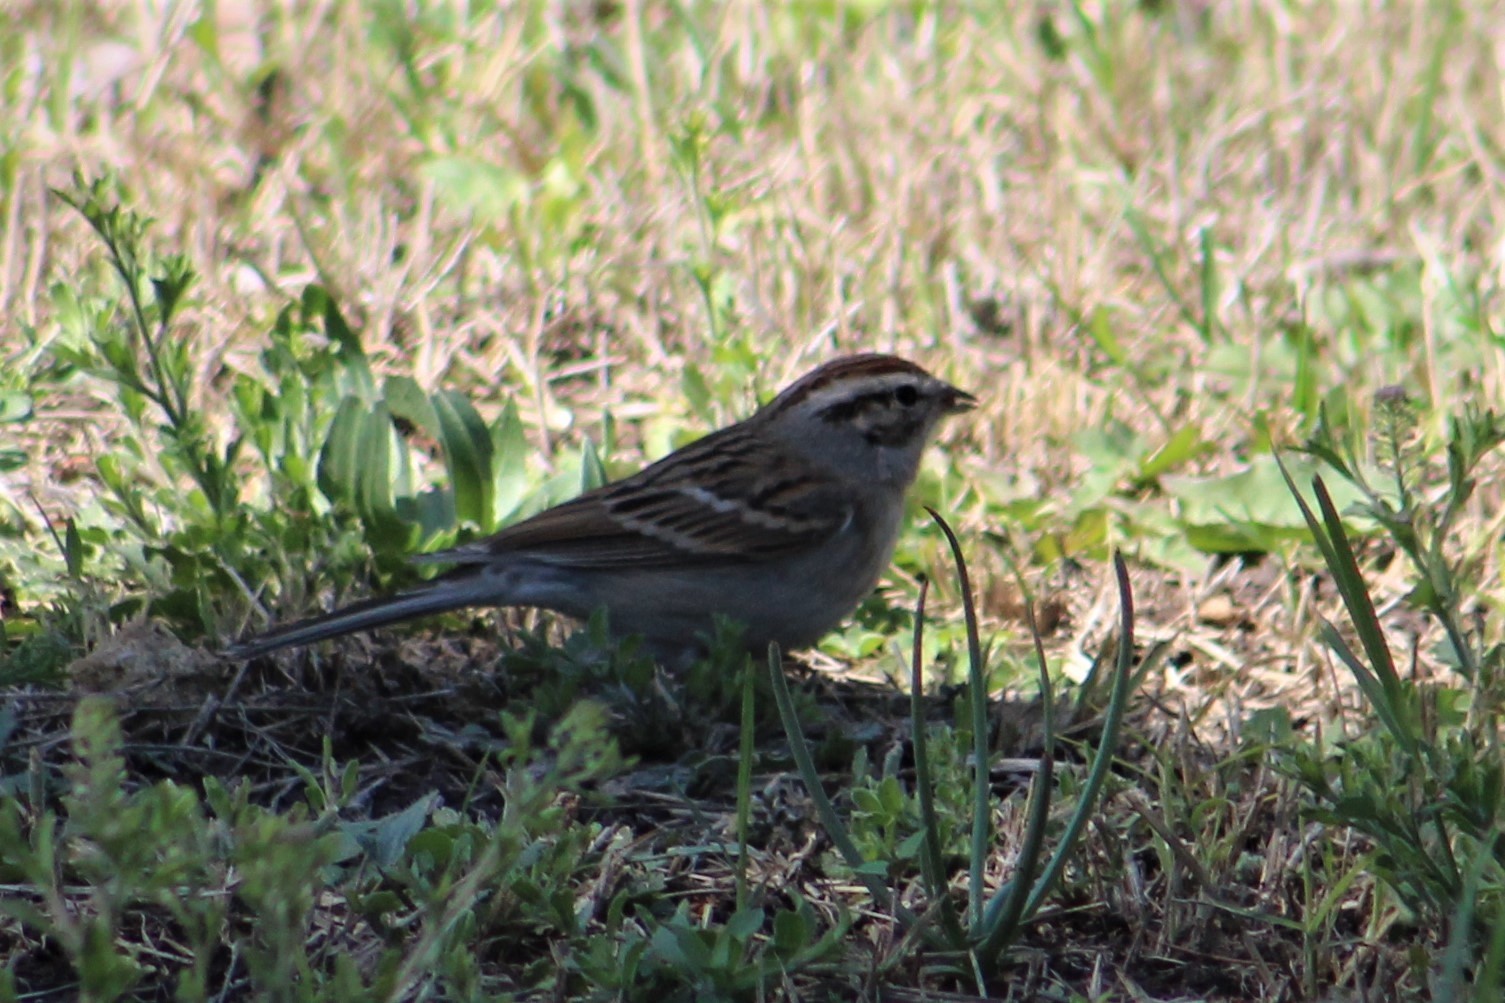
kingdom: Animalia
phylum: Chordata
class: Aves
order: Passeriformes
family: Passerellidae
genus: Spizella
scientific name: Spizella passerina
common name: Chipping sparrow
